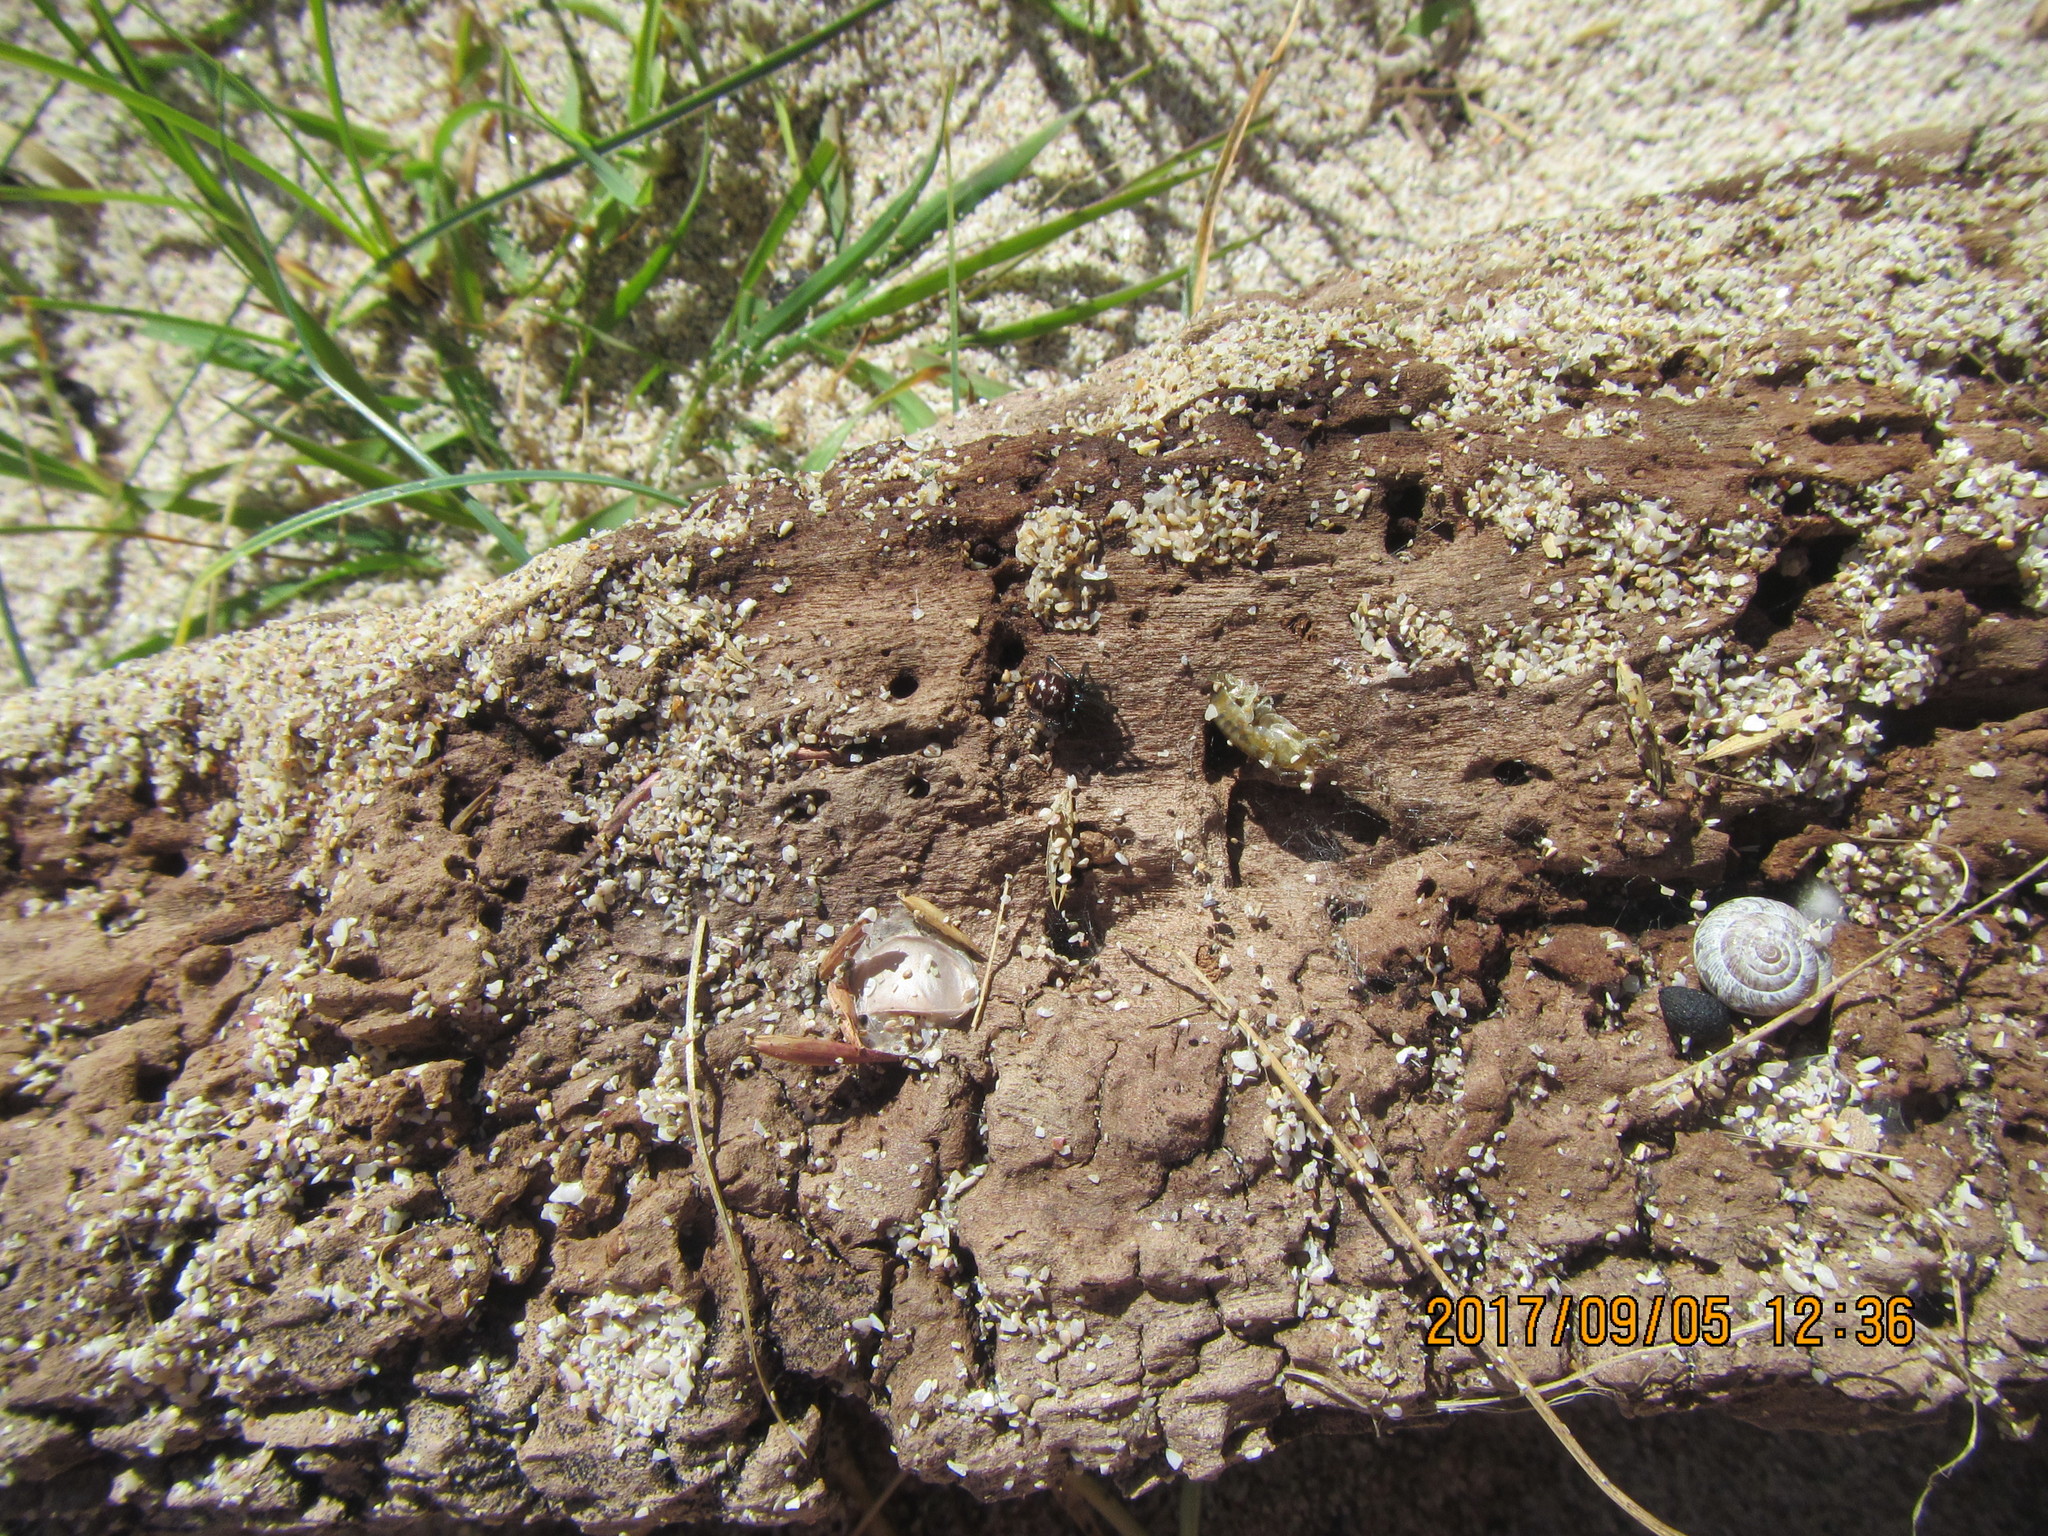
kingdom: Animalia
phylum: Mollusca
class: Gastropoda
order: Stylommatophora
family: Geomitridae
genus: Xeroplexa
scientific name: Xeroplexa intersecta
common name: Wrinkled snail
